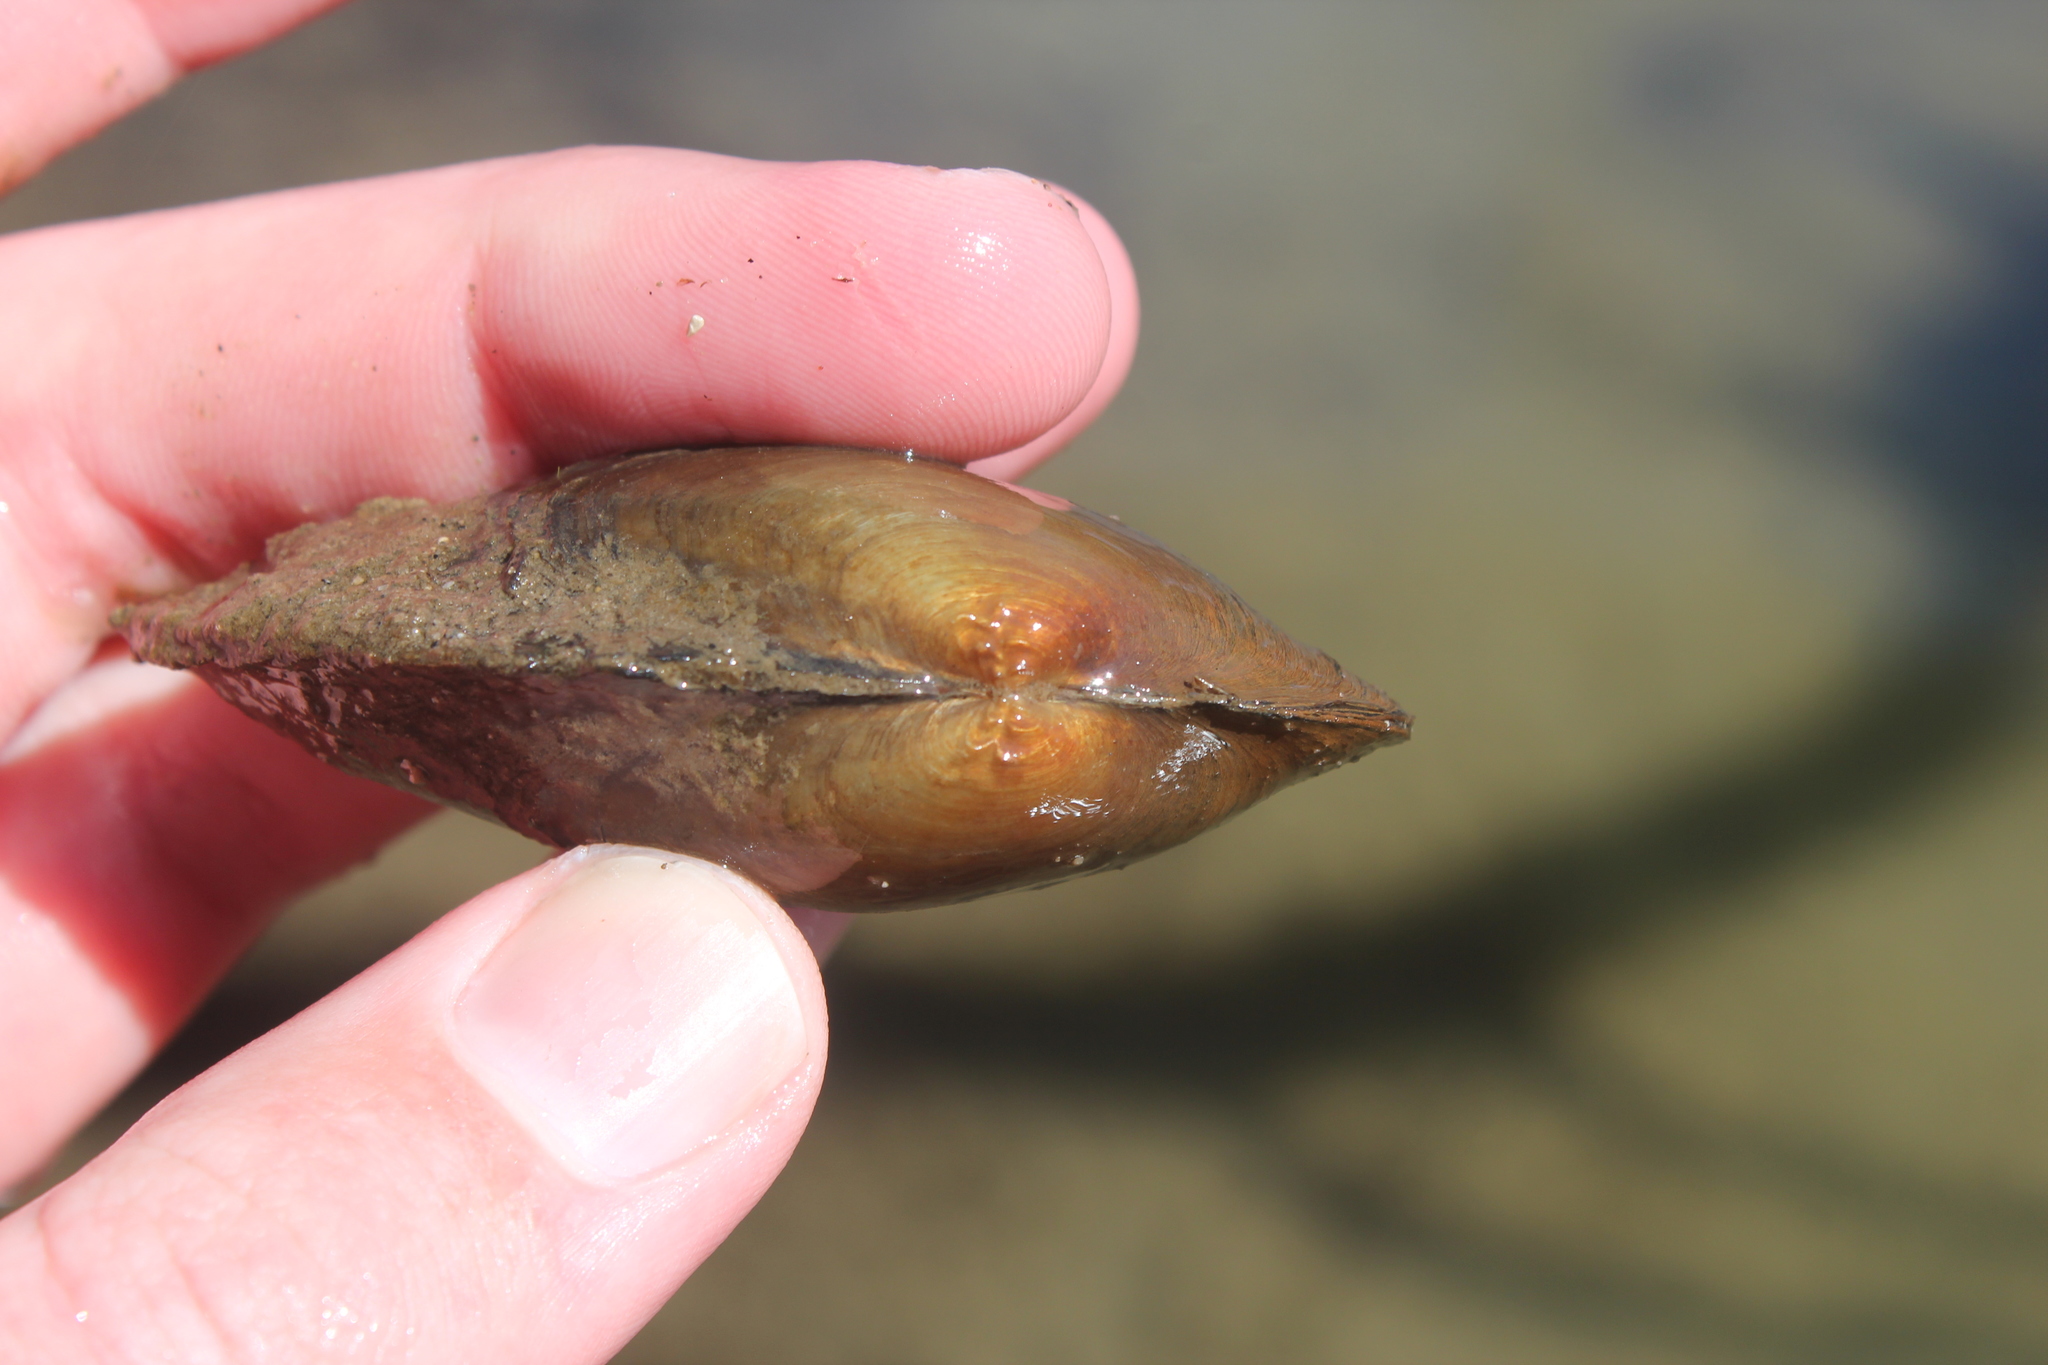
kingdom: Animalia
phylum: Mollusca
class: Bivalvia
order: Unionida
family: Unionidae
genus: Pyganodon
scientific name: Pyganodon grandis
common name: Giant floater
